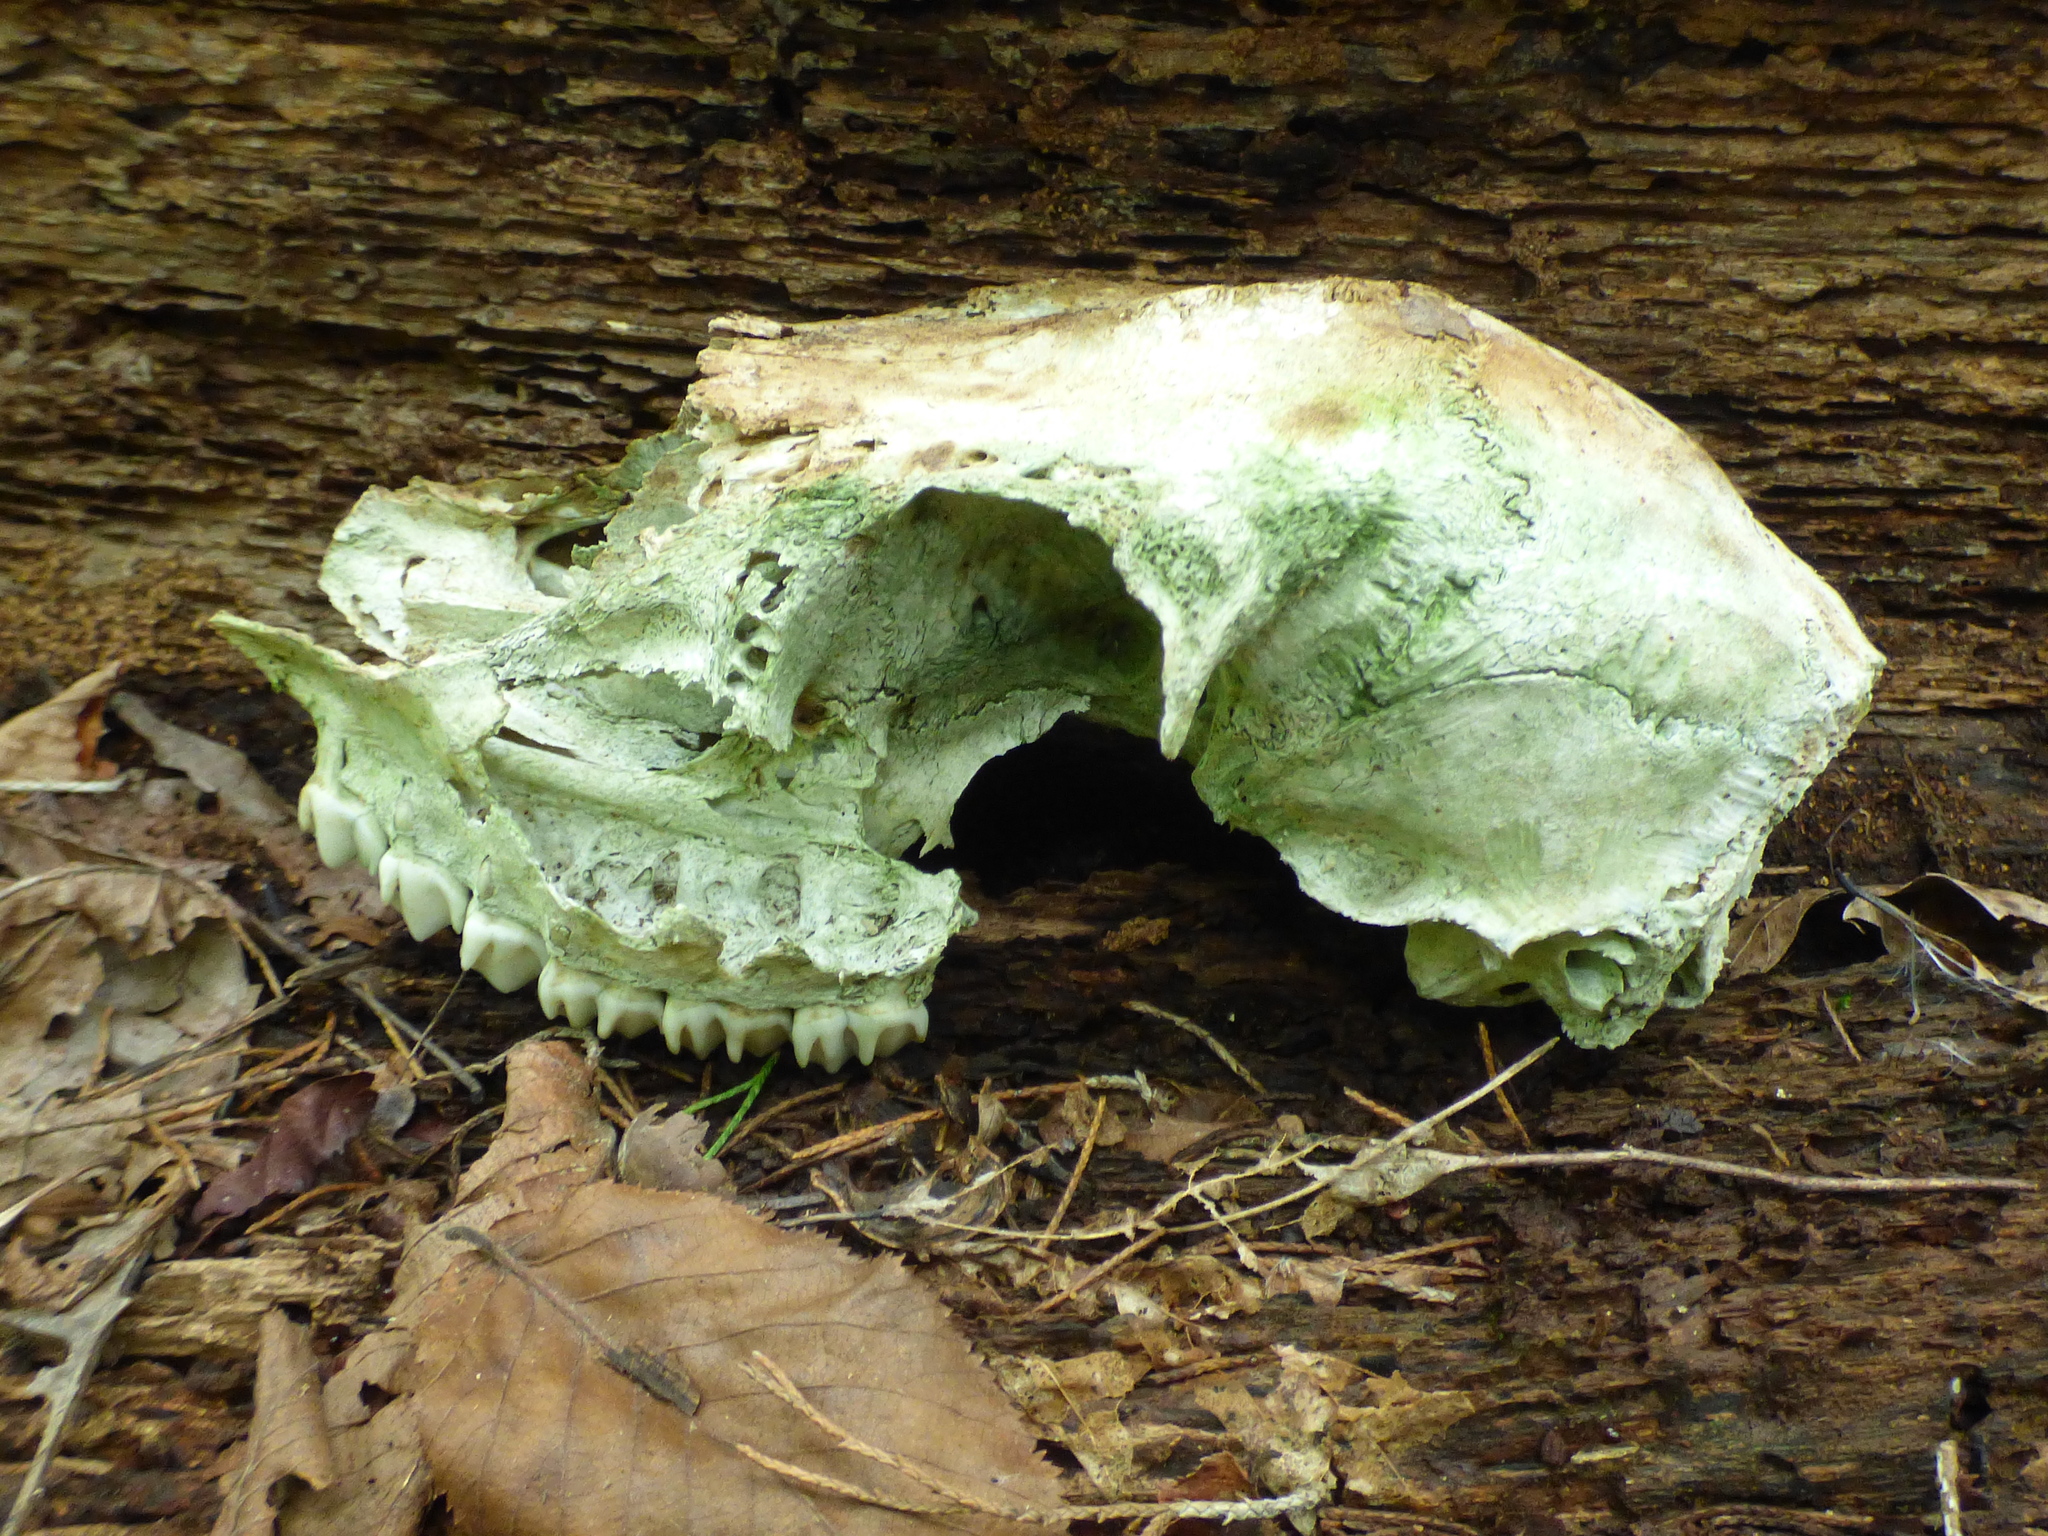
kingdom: Animalia
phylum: Chordata
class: Mammalia
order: Artiodactyla
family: Cervidae
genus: Odocoileus
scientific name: Odocoileus virginianus
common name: White-tailed deer
